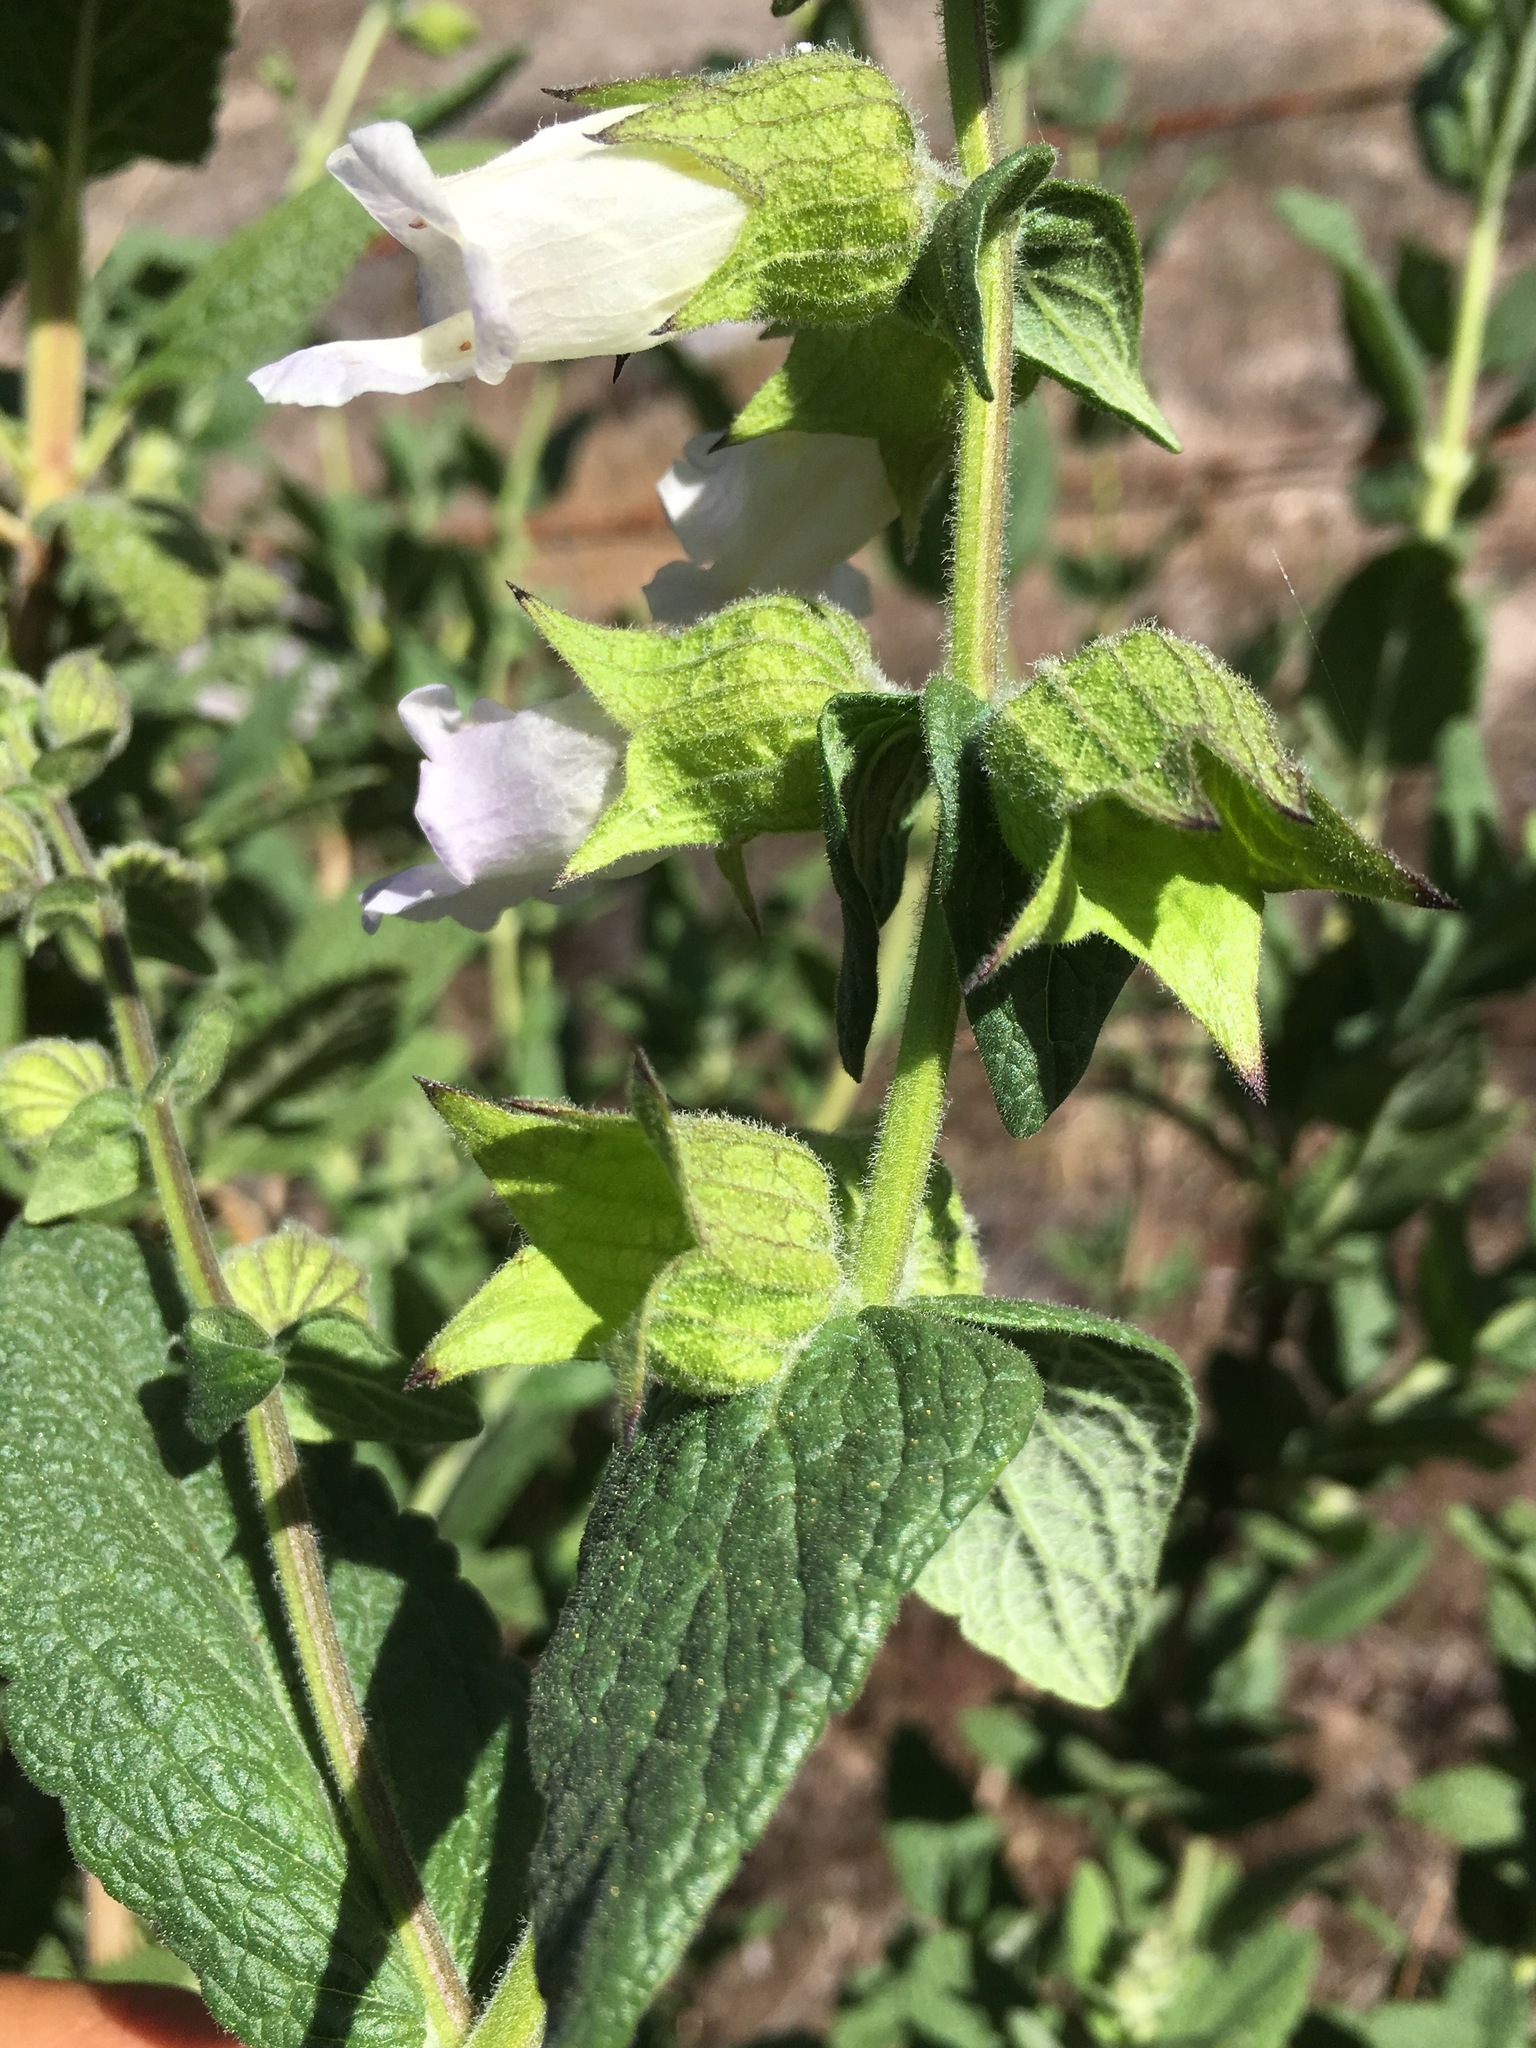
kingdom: Plantae
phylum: Tracheophyta
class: Magnoliopsida
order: Lamiales
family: Lamiaceae
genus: Lepechinia
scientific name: Lepechinia calycina
